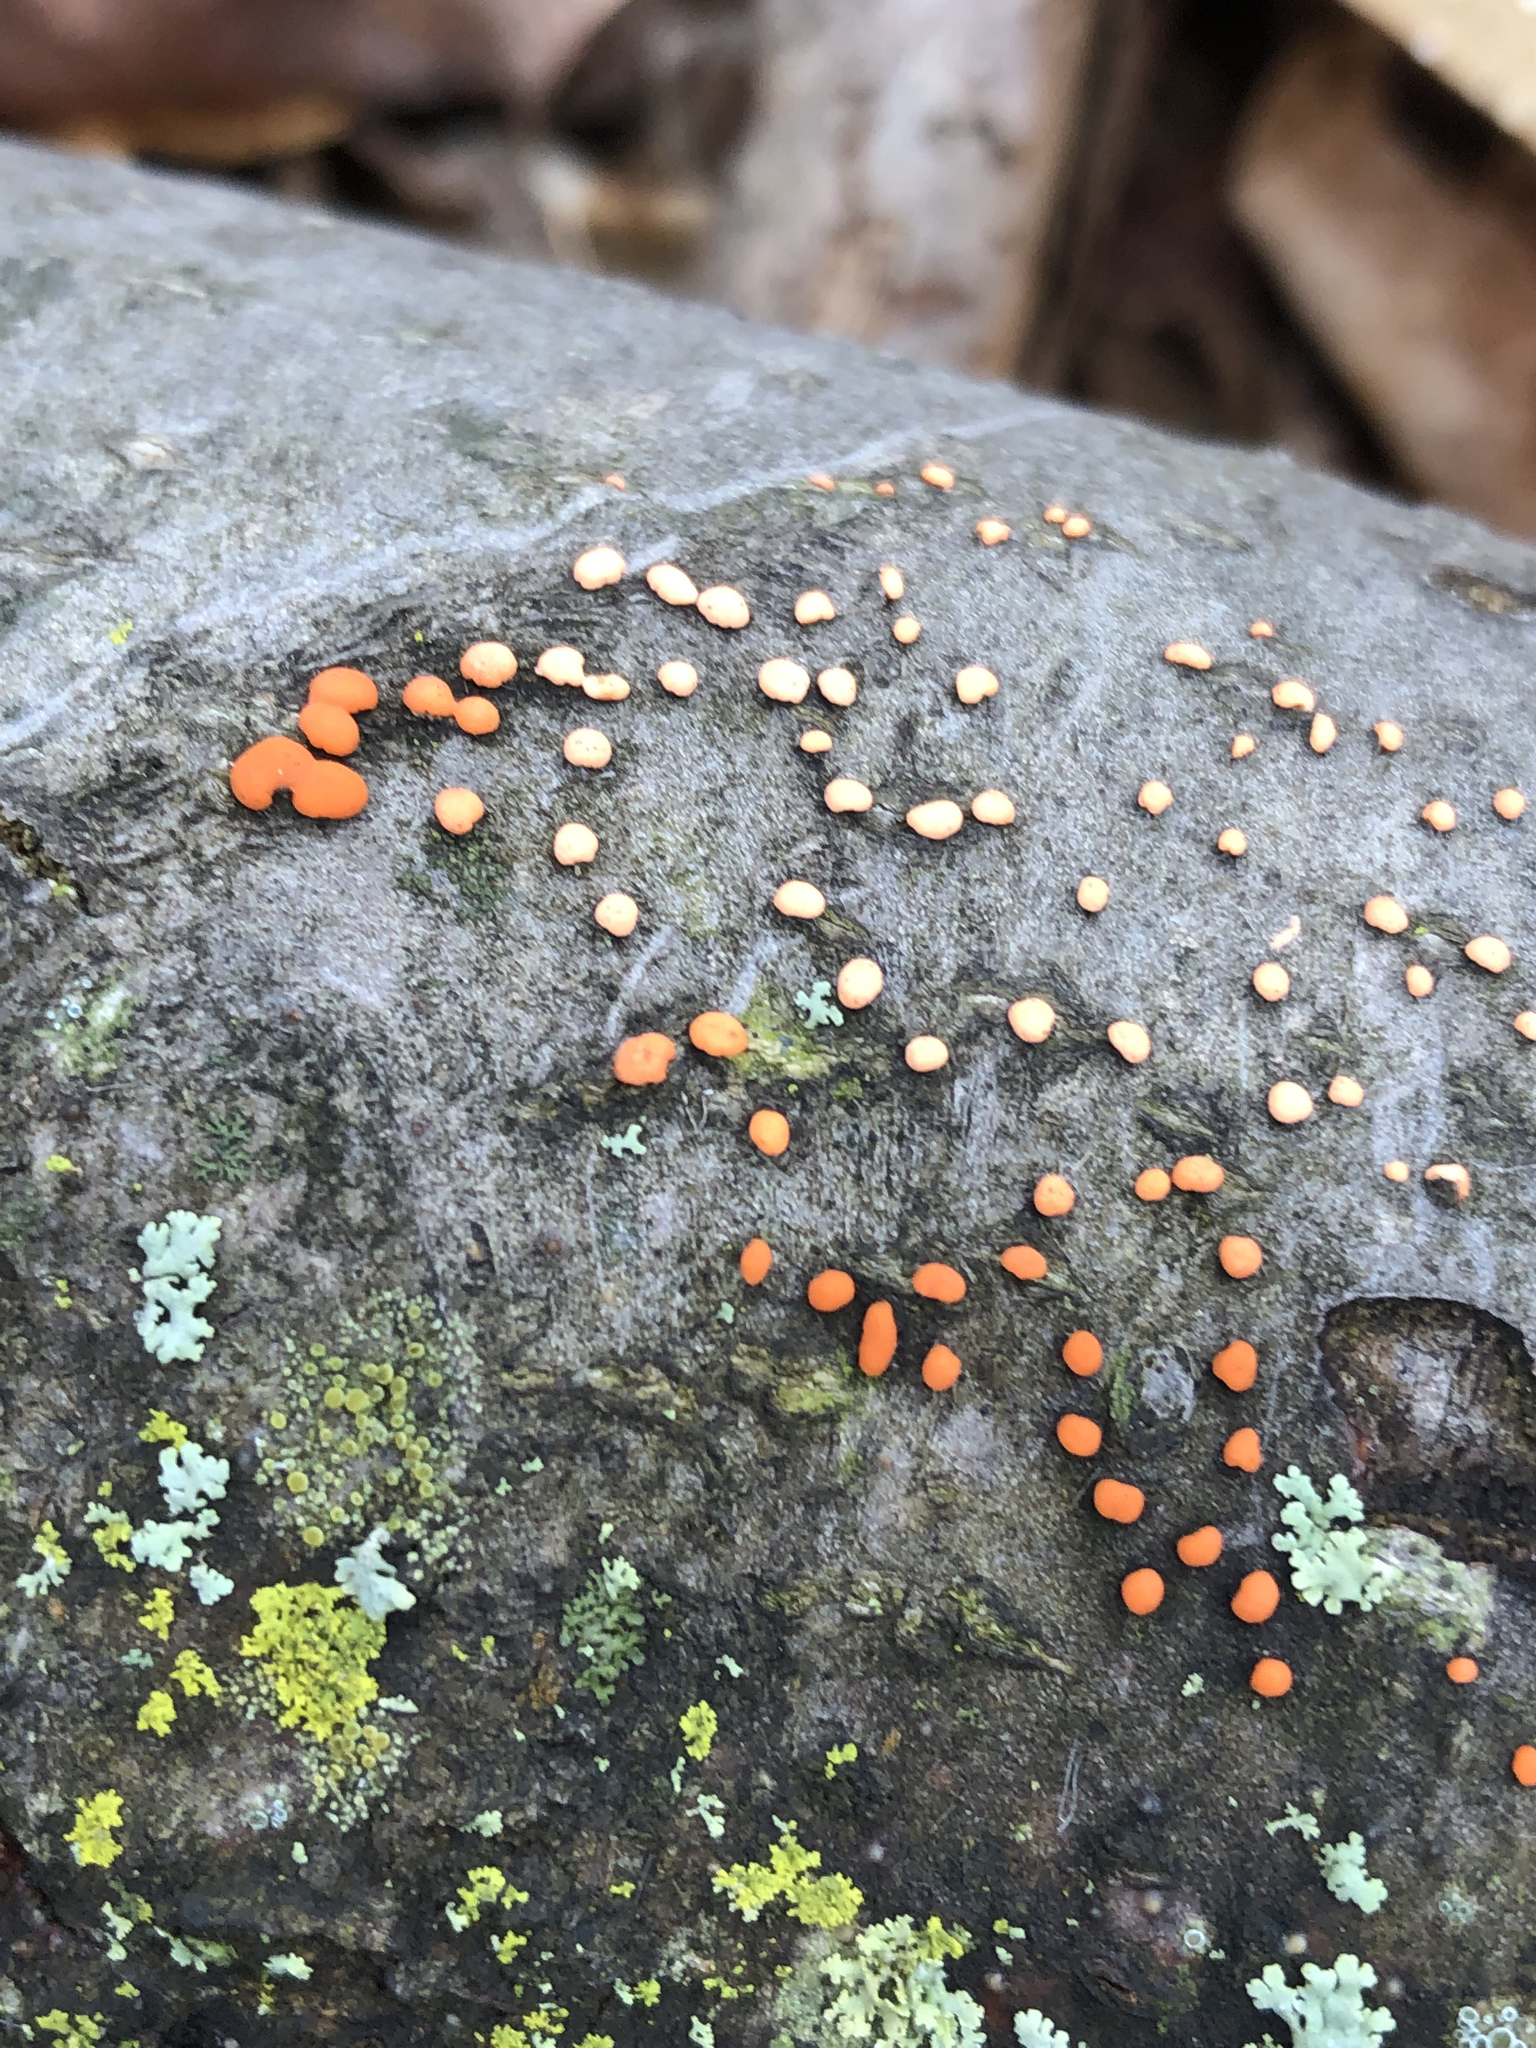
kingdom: Fungi
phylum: Ascomycota
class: Sordariomycetes
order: Hypocreales
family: Nectriaceae
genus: Nectria
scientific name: Nectria cinnabarina
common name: Coral spot
